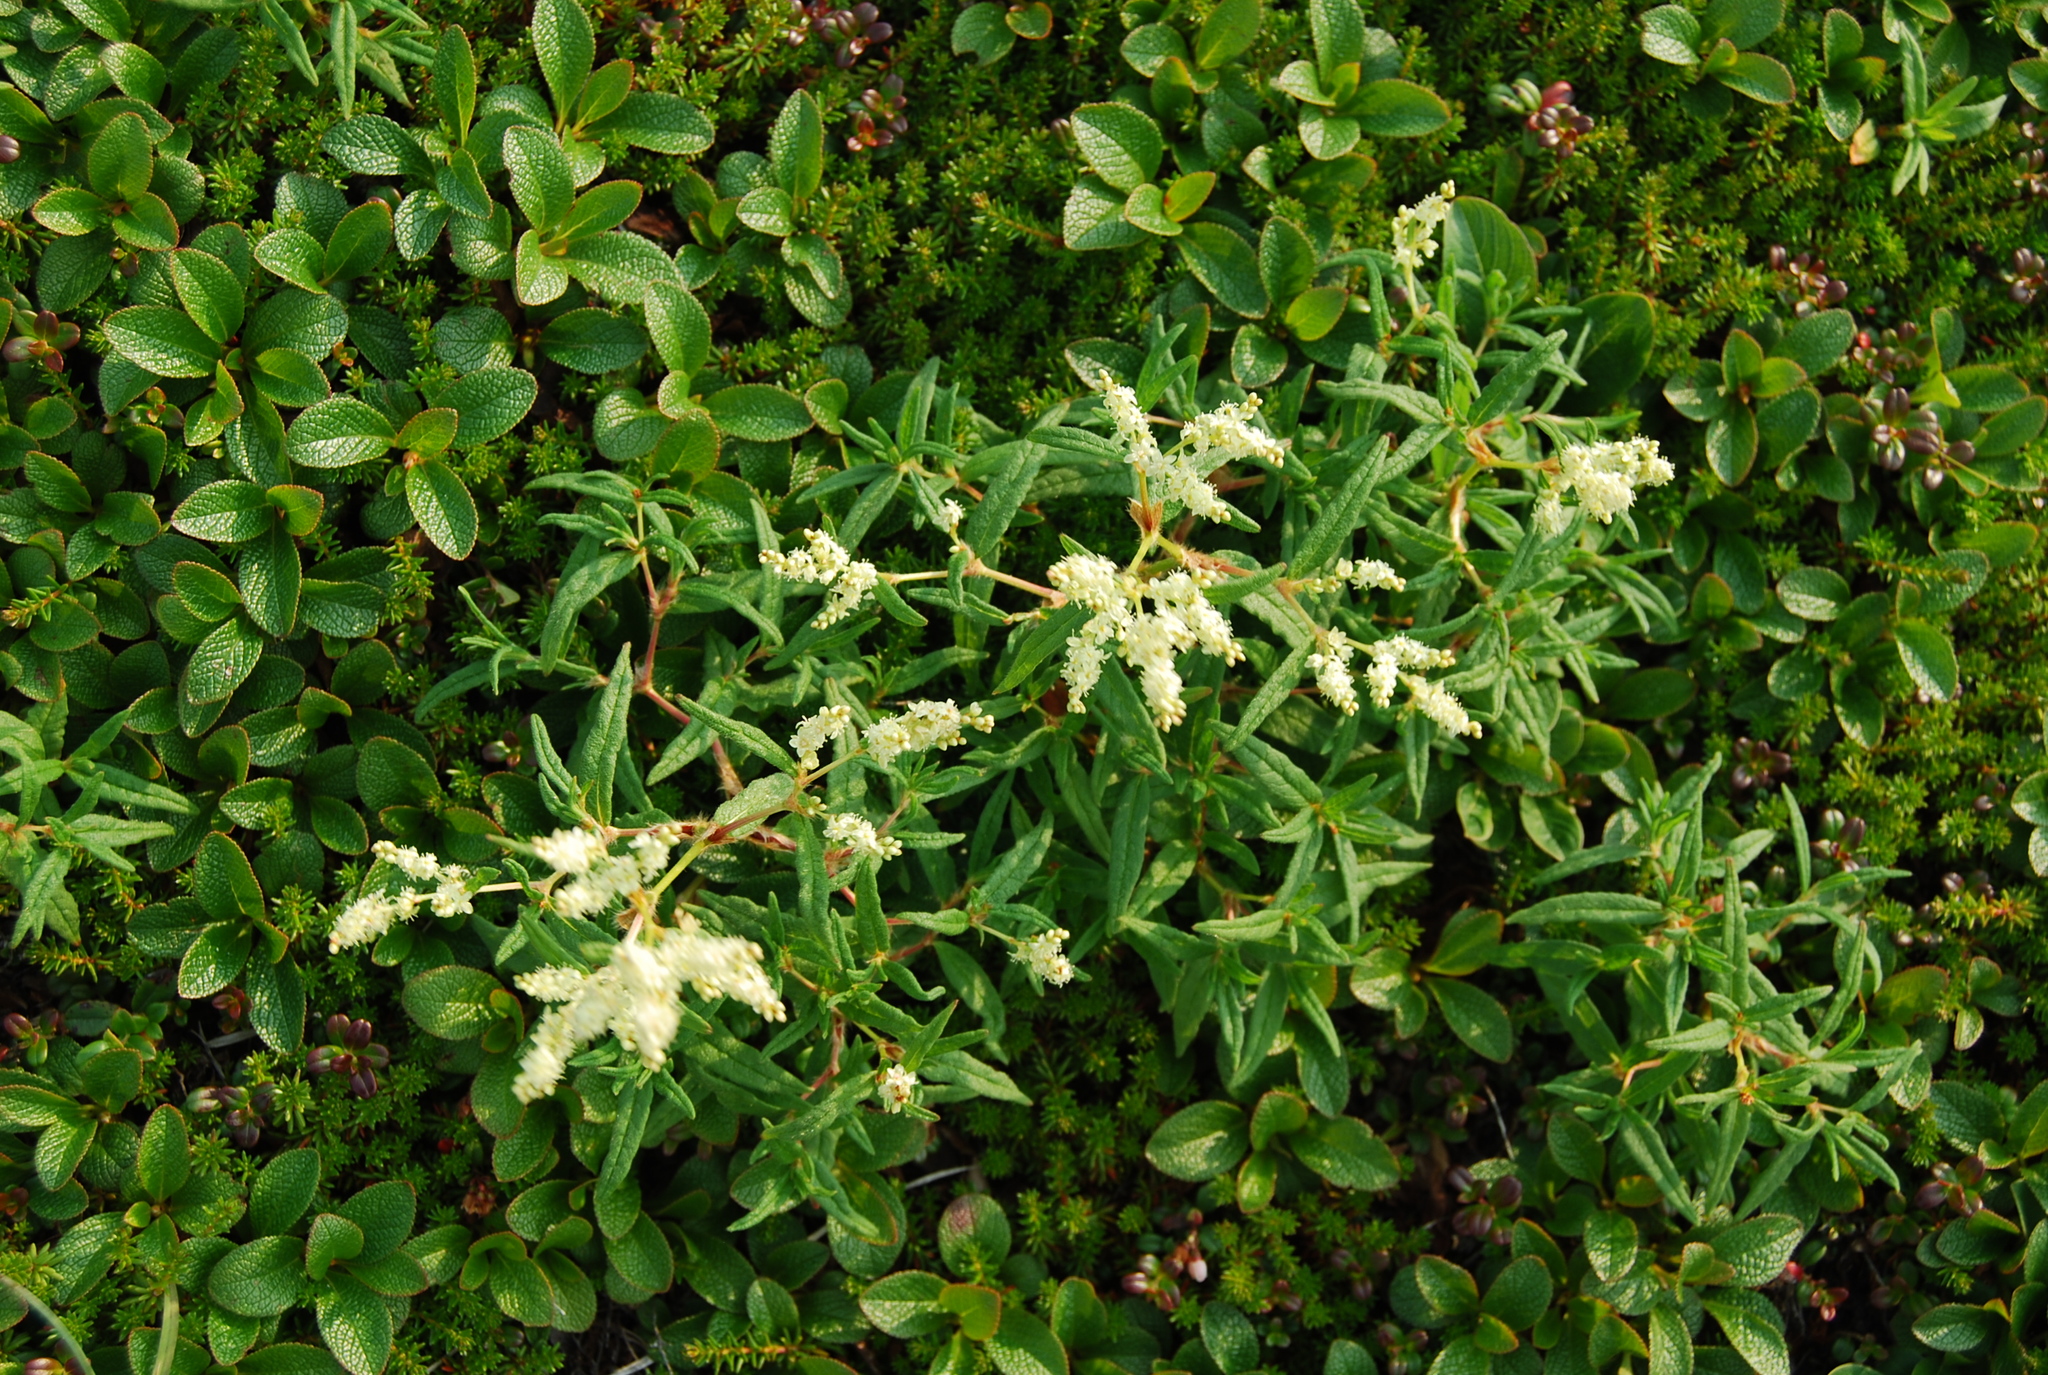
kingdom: Plantae
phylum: Tracheophyta
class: Magnoliopsida
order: Caryophyllales
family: Polygonaceae
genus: Koenigia
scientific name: Koenigia ocreata
